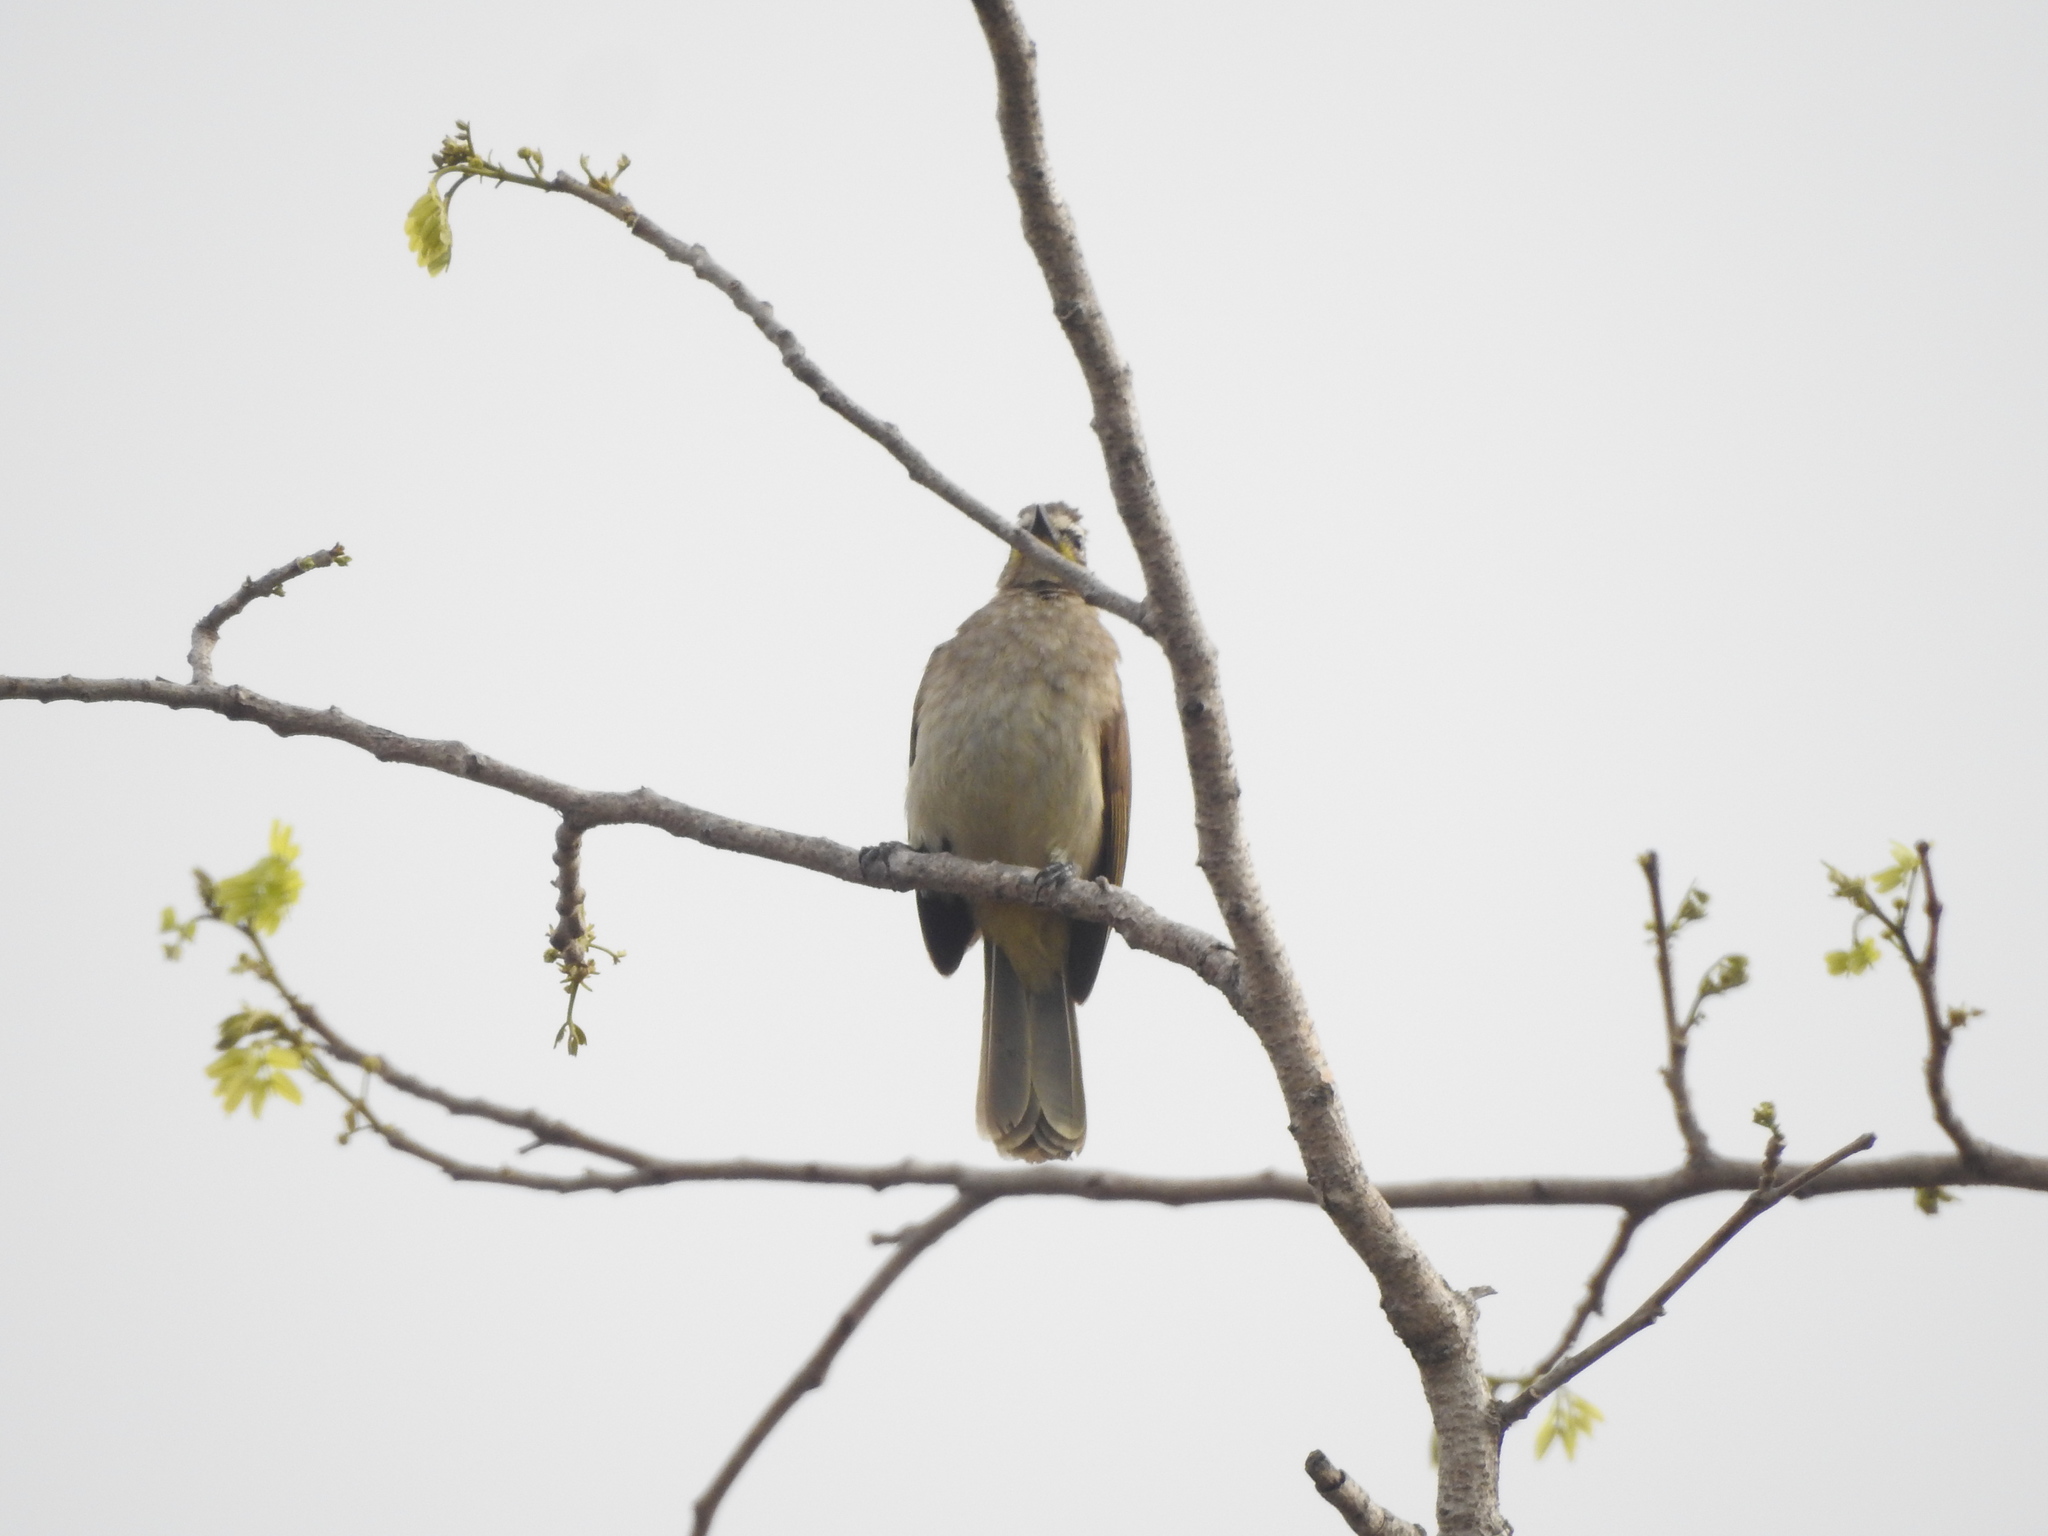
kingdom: Animalia
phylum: Chordata
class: Aves
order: Passeriformes
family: Pycnonotidae
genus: Pycnonotus
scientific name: Pycnonotus luteolus
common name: White-browed bulbul
